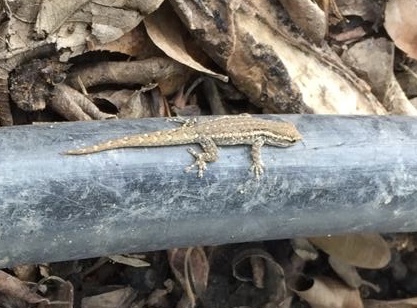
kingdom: Animalia
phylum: Chordata
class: Squamata
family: Gekkonidae
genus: Lygodactylus
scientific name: Lygodactylus capensis
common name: Cape dwarf gecko
